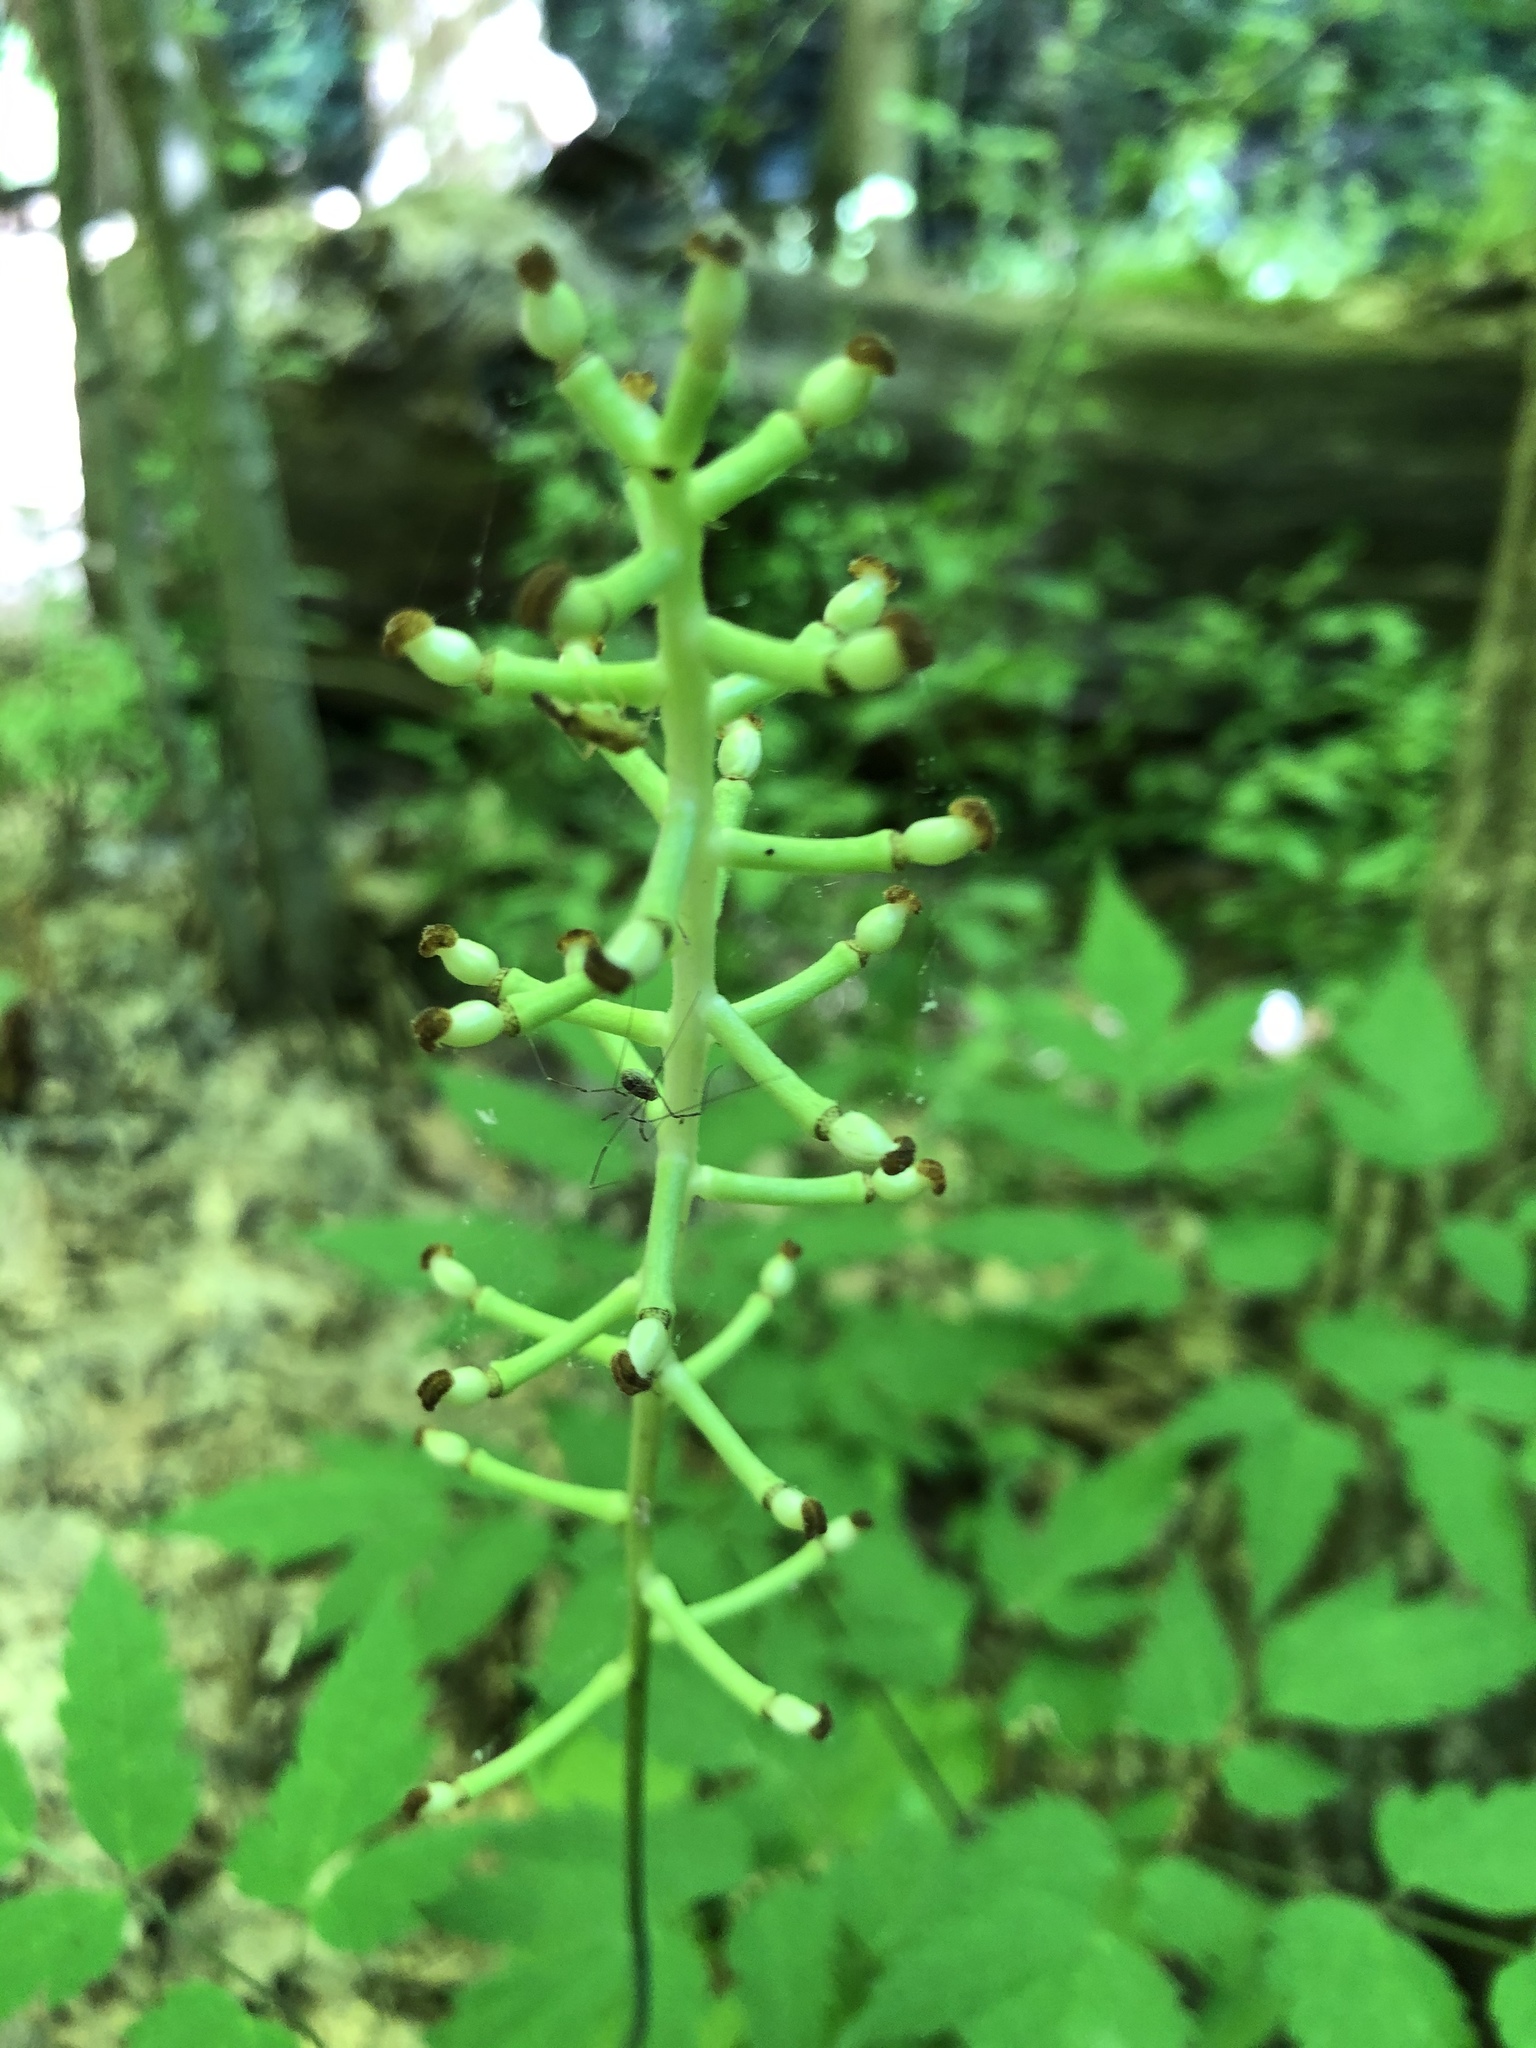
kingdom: Plantae
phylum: Tracheophyta
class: Magnoliopsida
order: Ranunculales
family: Ranunculaceae
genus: Actaea
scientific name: Actaea pachypoda
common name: Doll's-eyes
